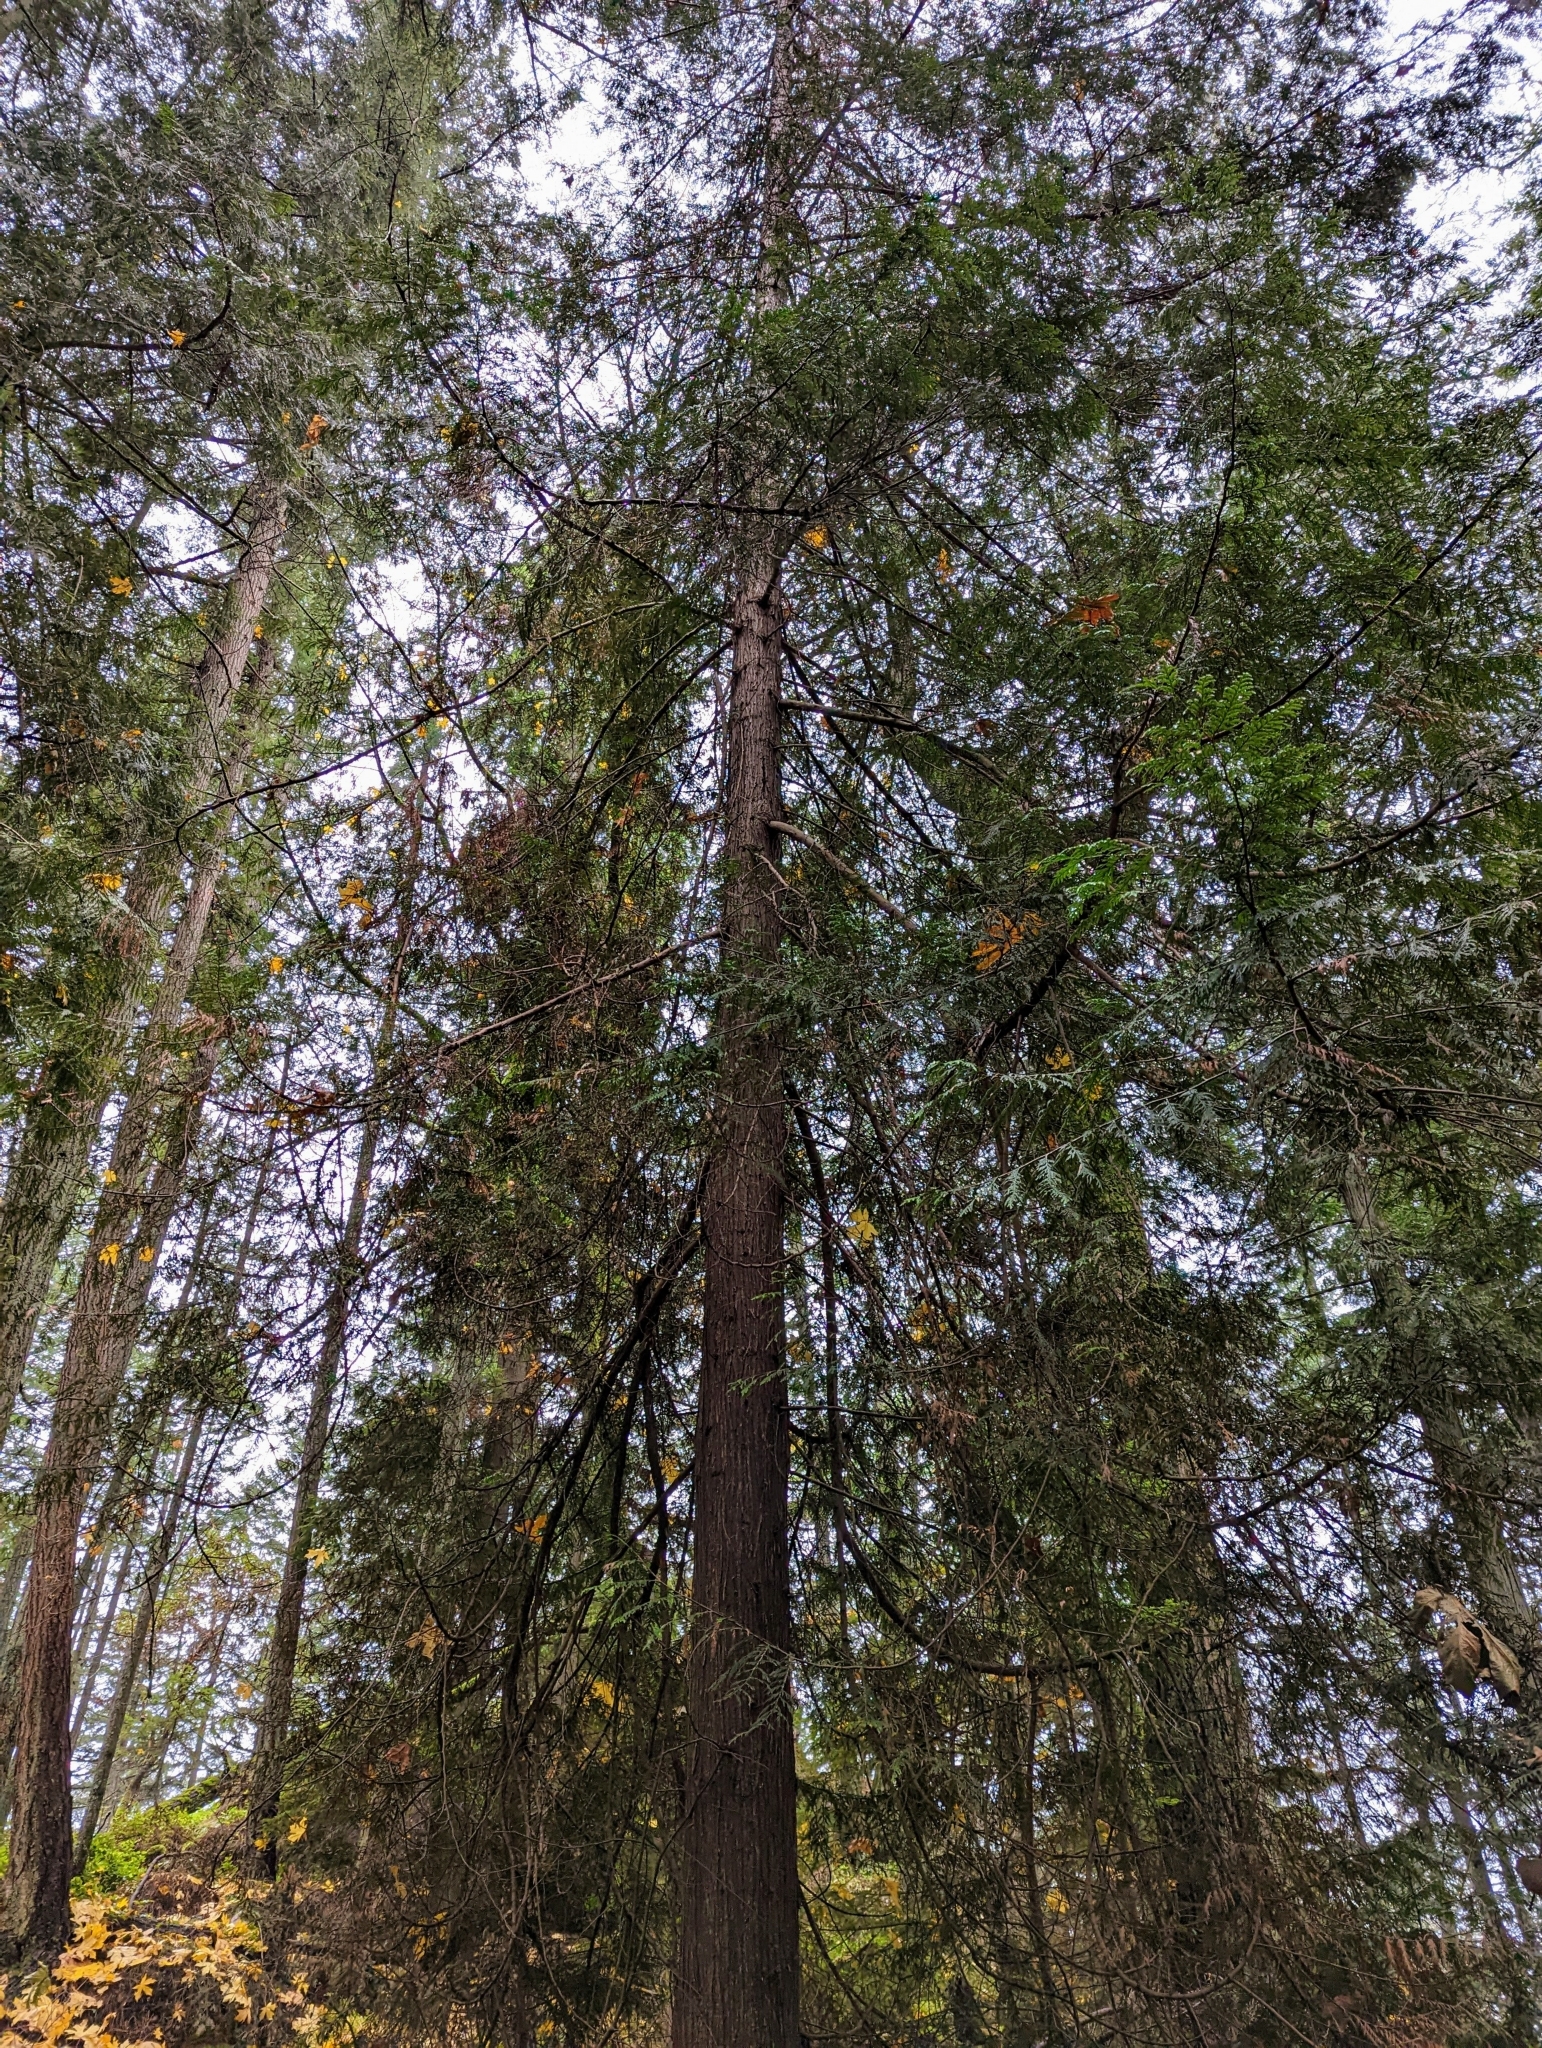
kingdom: Plantae
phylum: Tracheophyta
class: Pinopsida
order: Pinales
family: Cupressaceae
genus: Thuja
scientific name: Thuja plicata
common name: Western red-cedar
